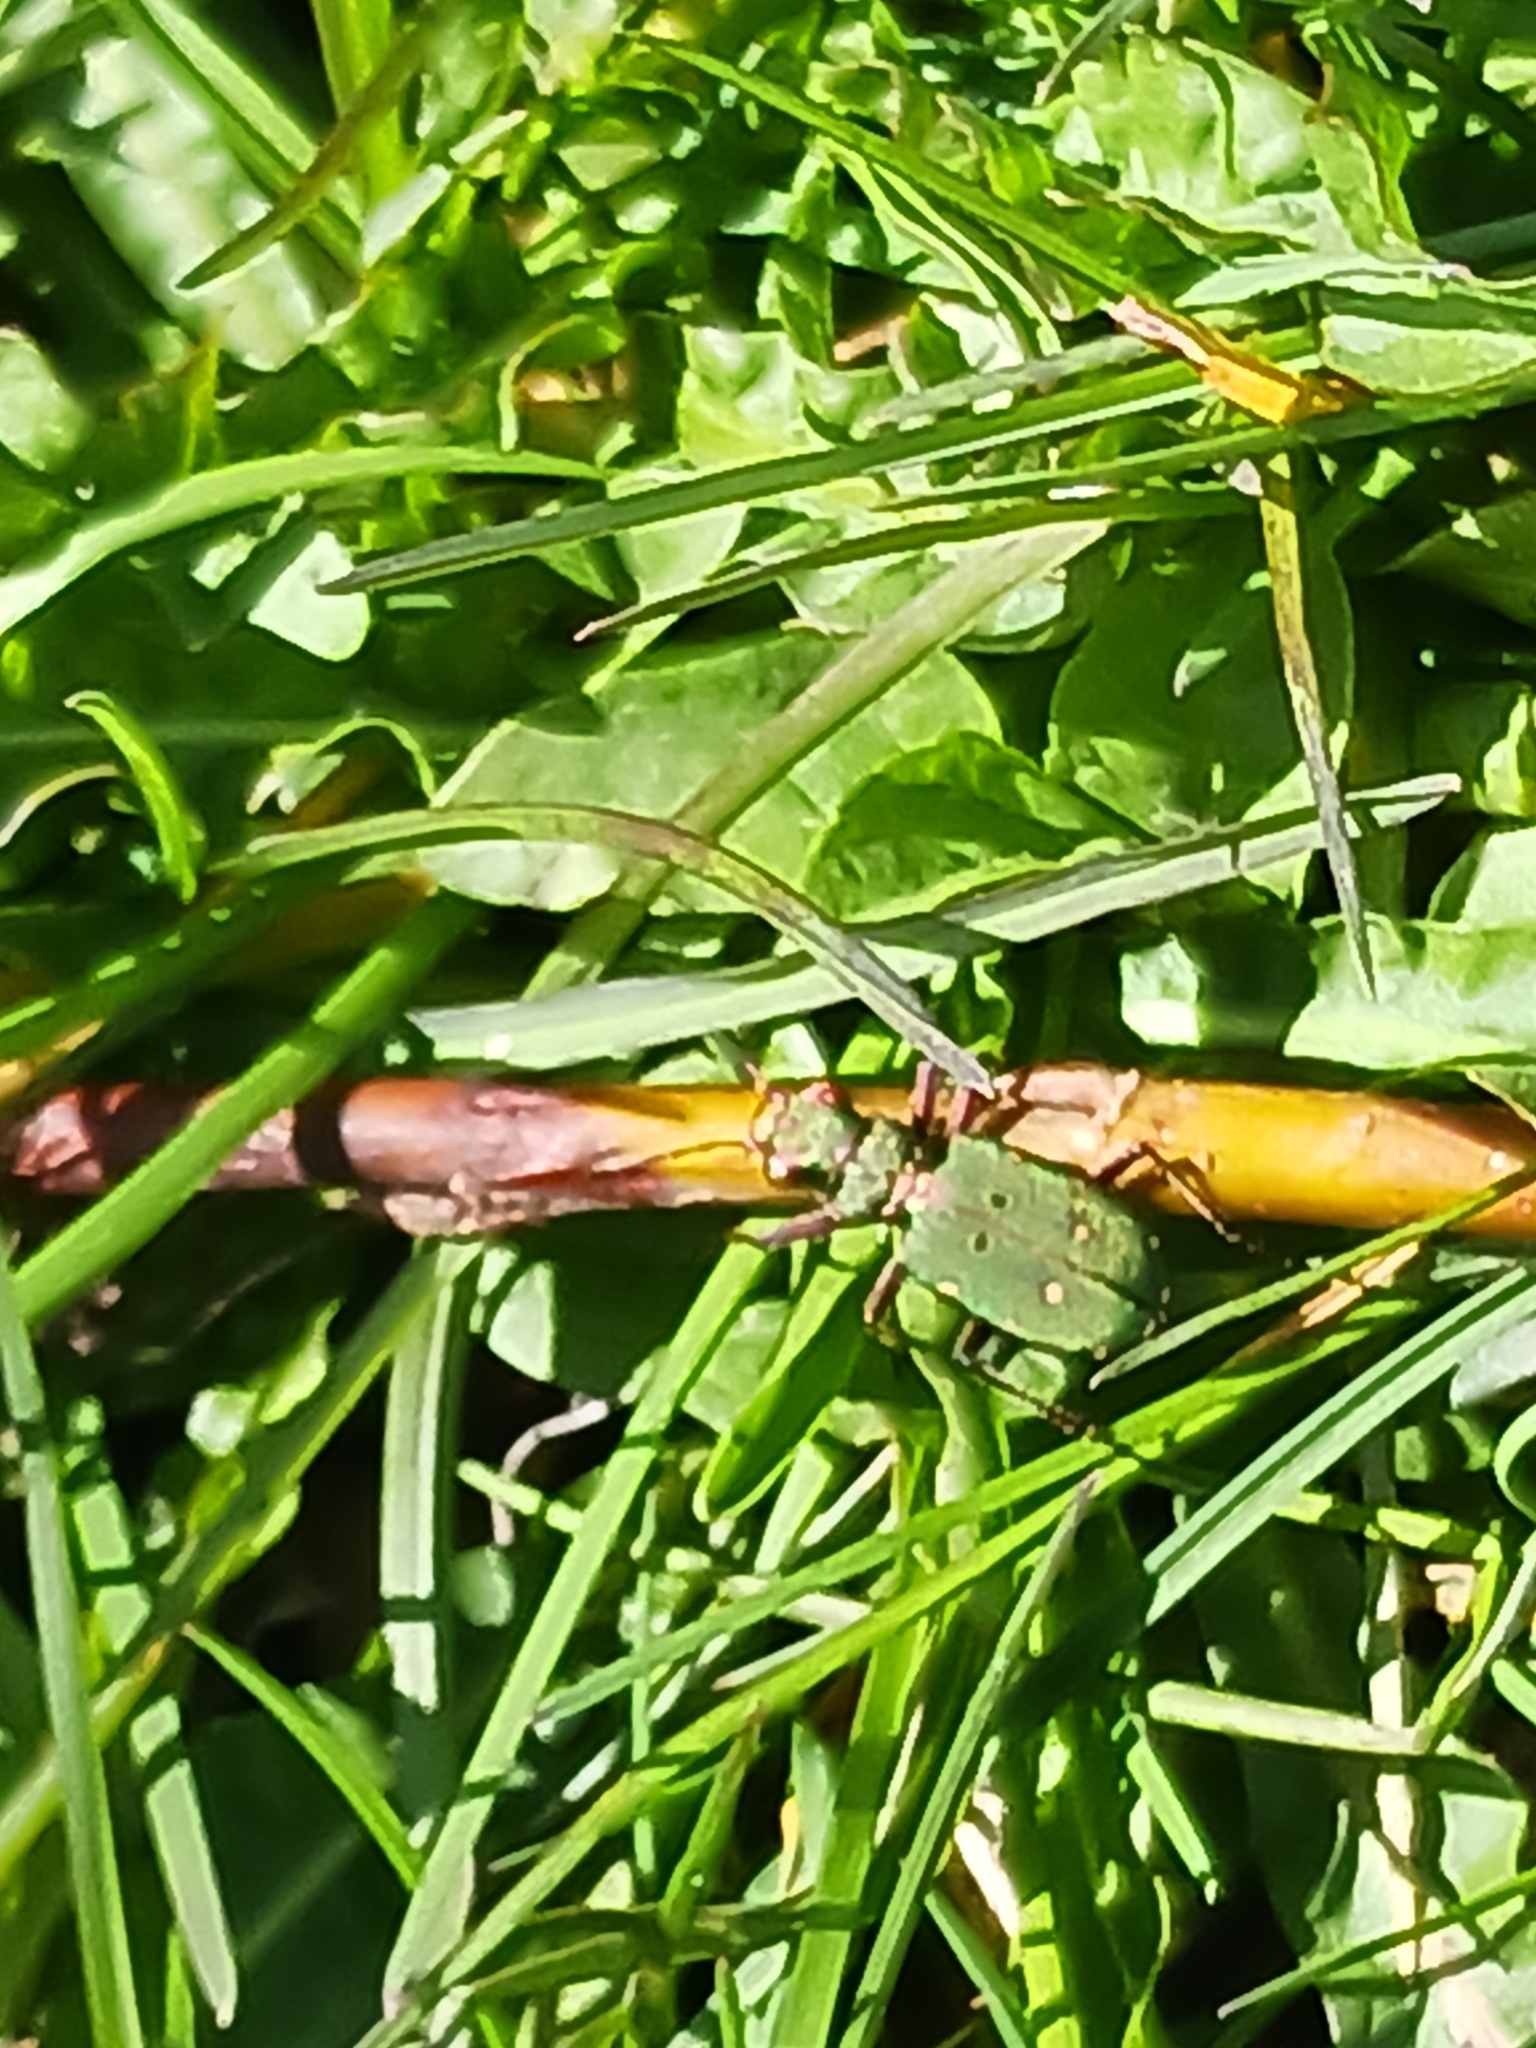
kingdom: Animalia
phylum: Arthropoda
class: Insecta
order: Coleoptera
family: Carabidae
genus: Cicindela
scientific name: Cicindela campestris
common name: Common tiger beetle
